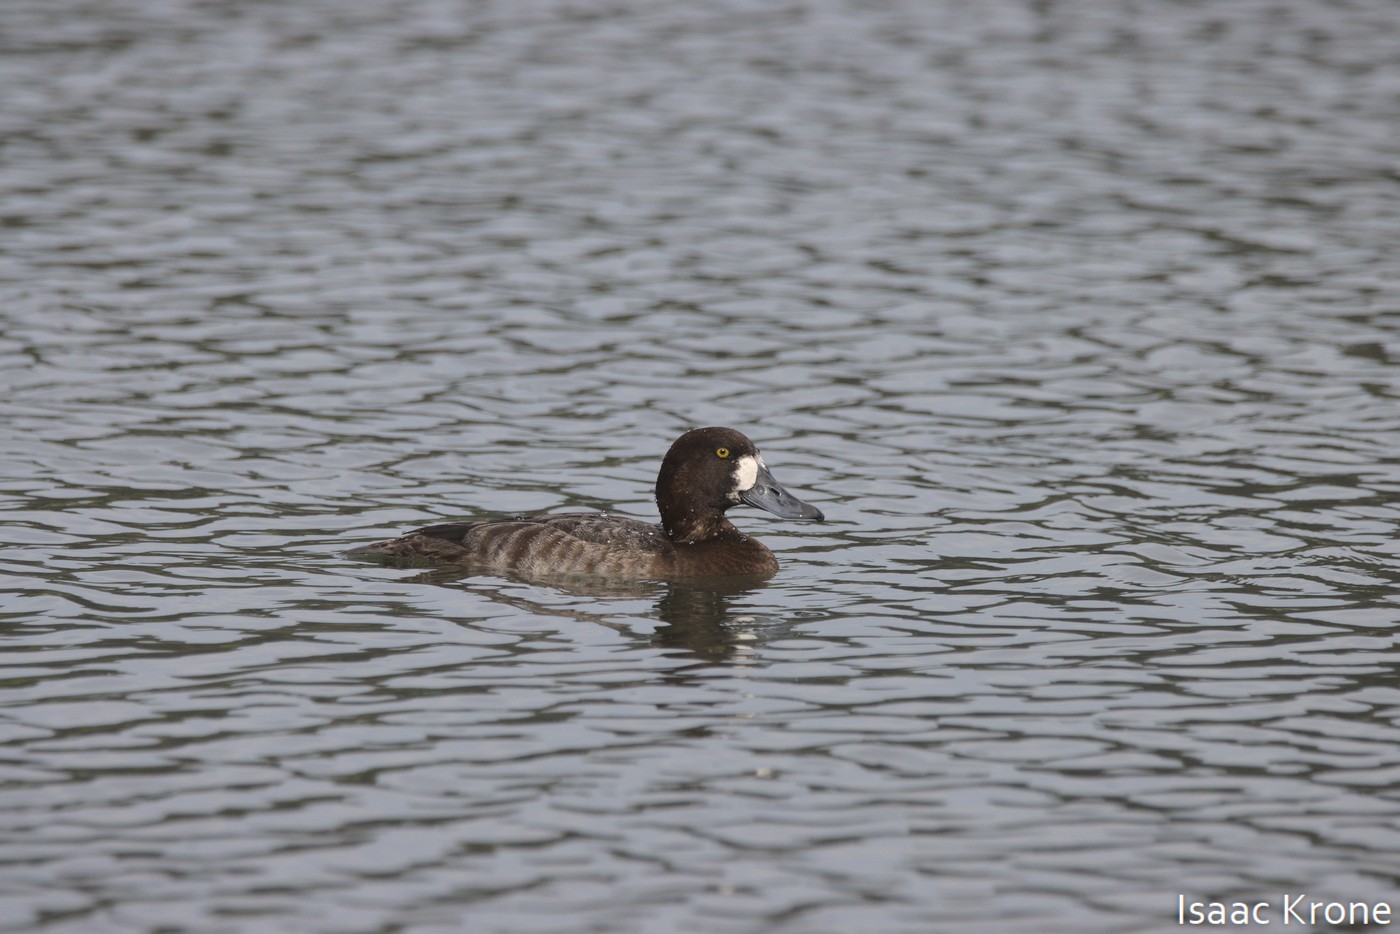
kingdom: Animalia
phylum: Chordata
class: Aves
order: Anseriformes
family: Anatidae
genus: Aythya
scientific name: Aythya marila
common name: Greater scaup
